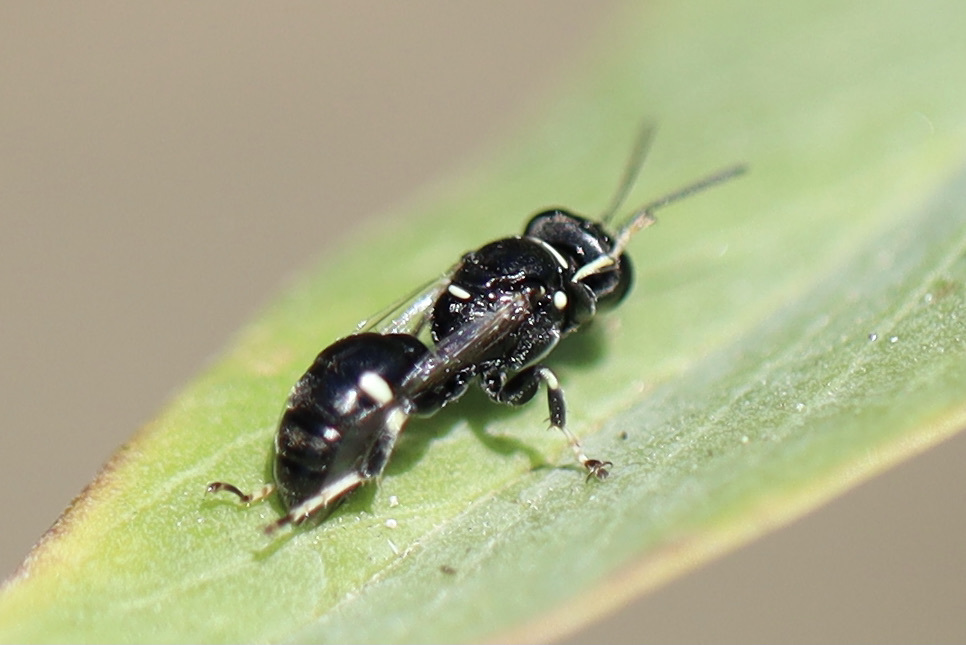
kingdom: Animalia
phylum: Arthropoda
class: Insecta
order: Hymenoptera
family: Crabronidae
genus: Clitemnestra
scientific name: Clitemnestra bipunctata
